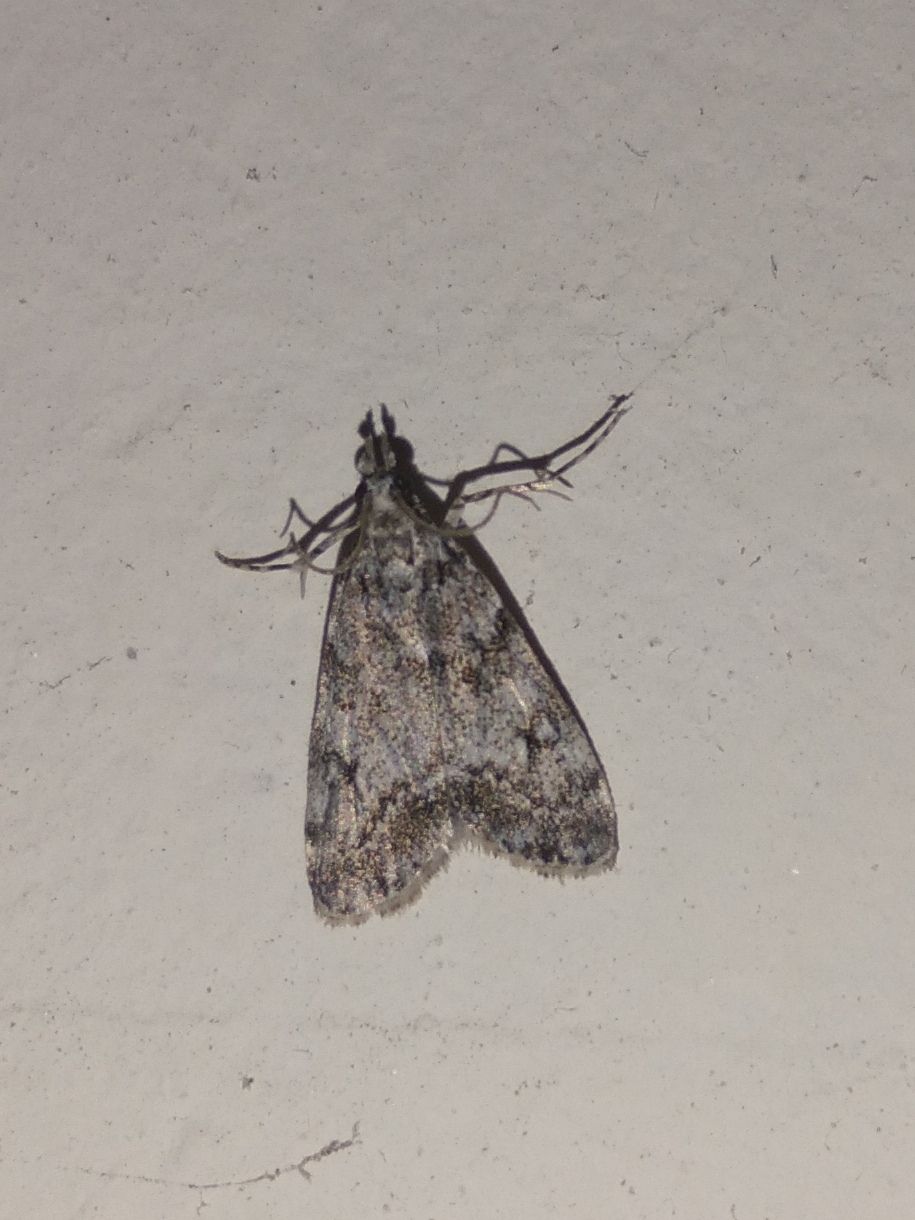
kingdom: Animalia
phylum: Arthropoda
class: Insecta
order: Lepidoptera
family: Crambidae
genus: Eudonia
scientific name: Eudonia lacustrata
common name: Little grey
